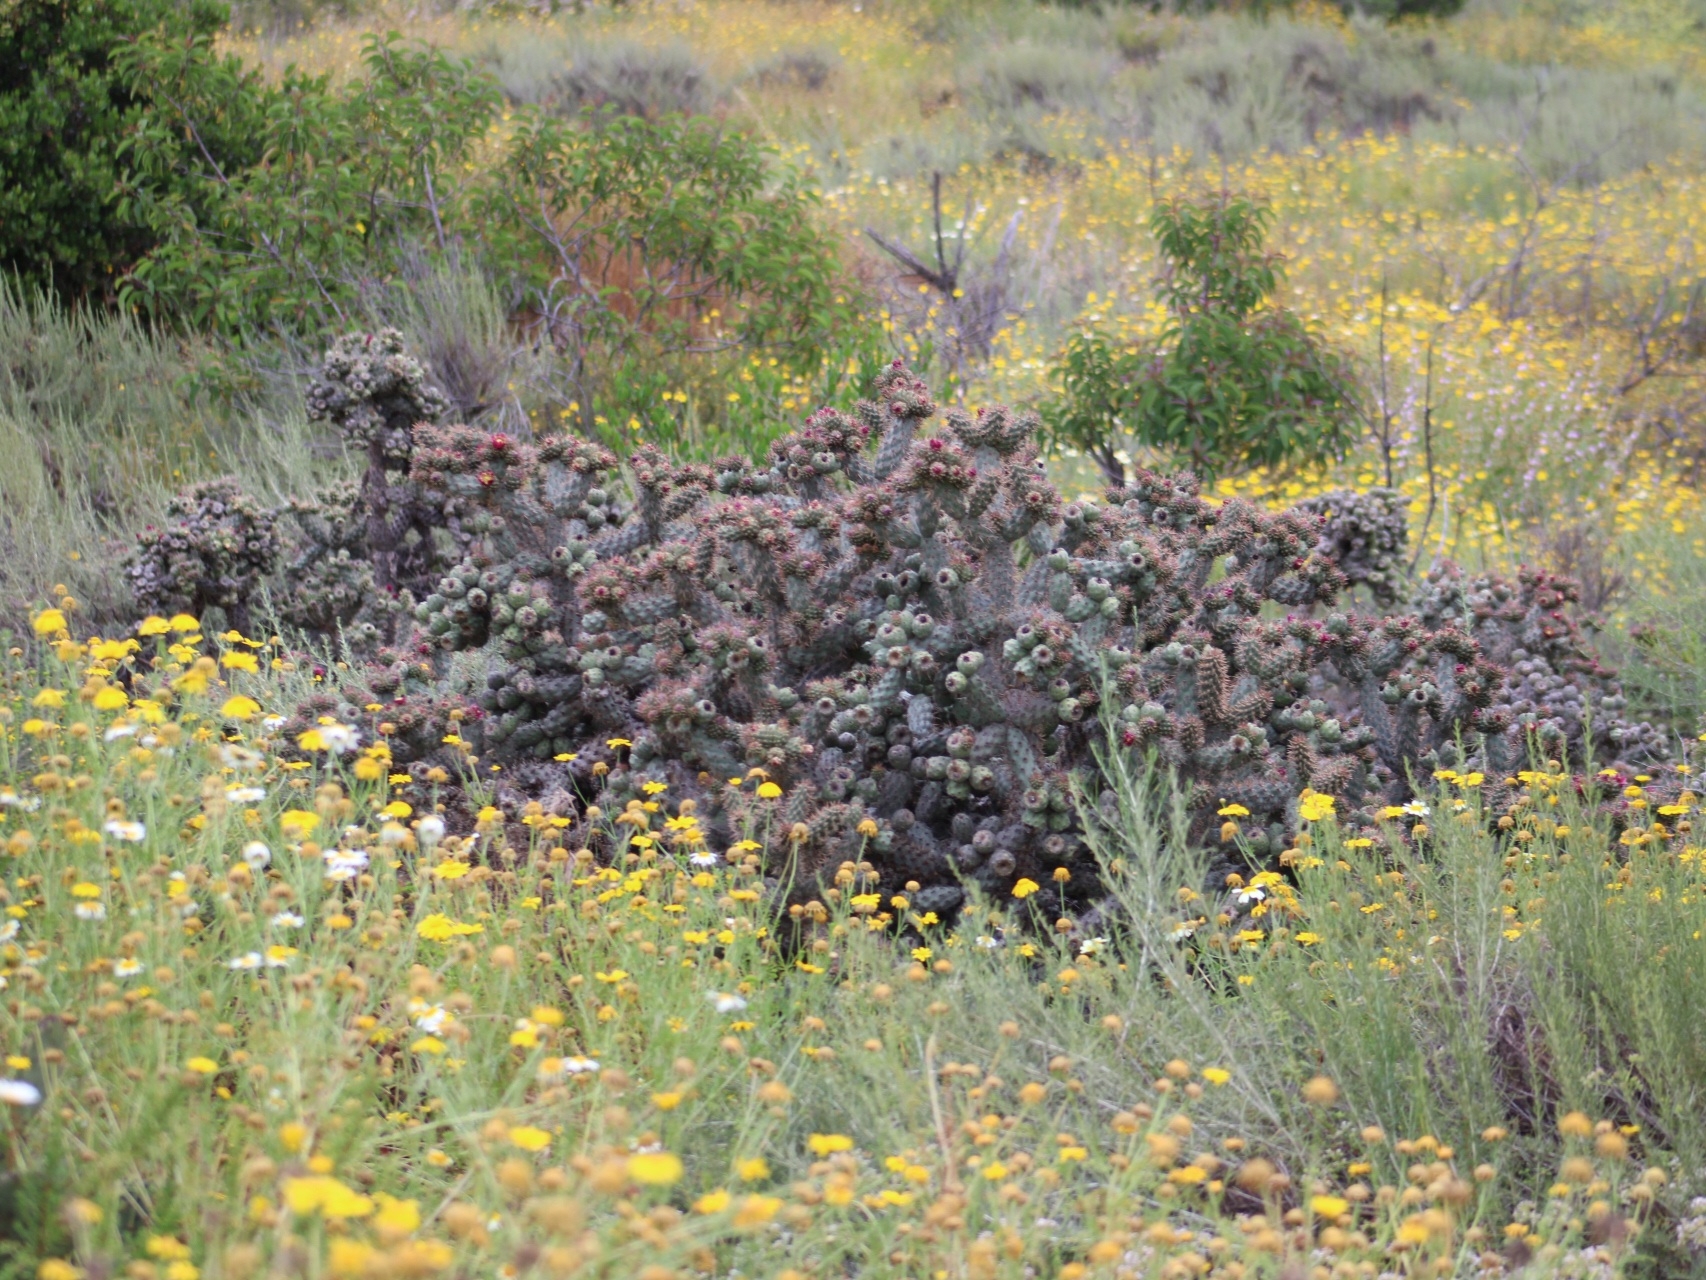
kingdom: Plantae
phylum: Tracheophyta
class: Magnoliopsida
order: Caryophyllales
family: Cactaceae
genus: Cylindropuntia
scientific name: Cylindropuntia prolifera
